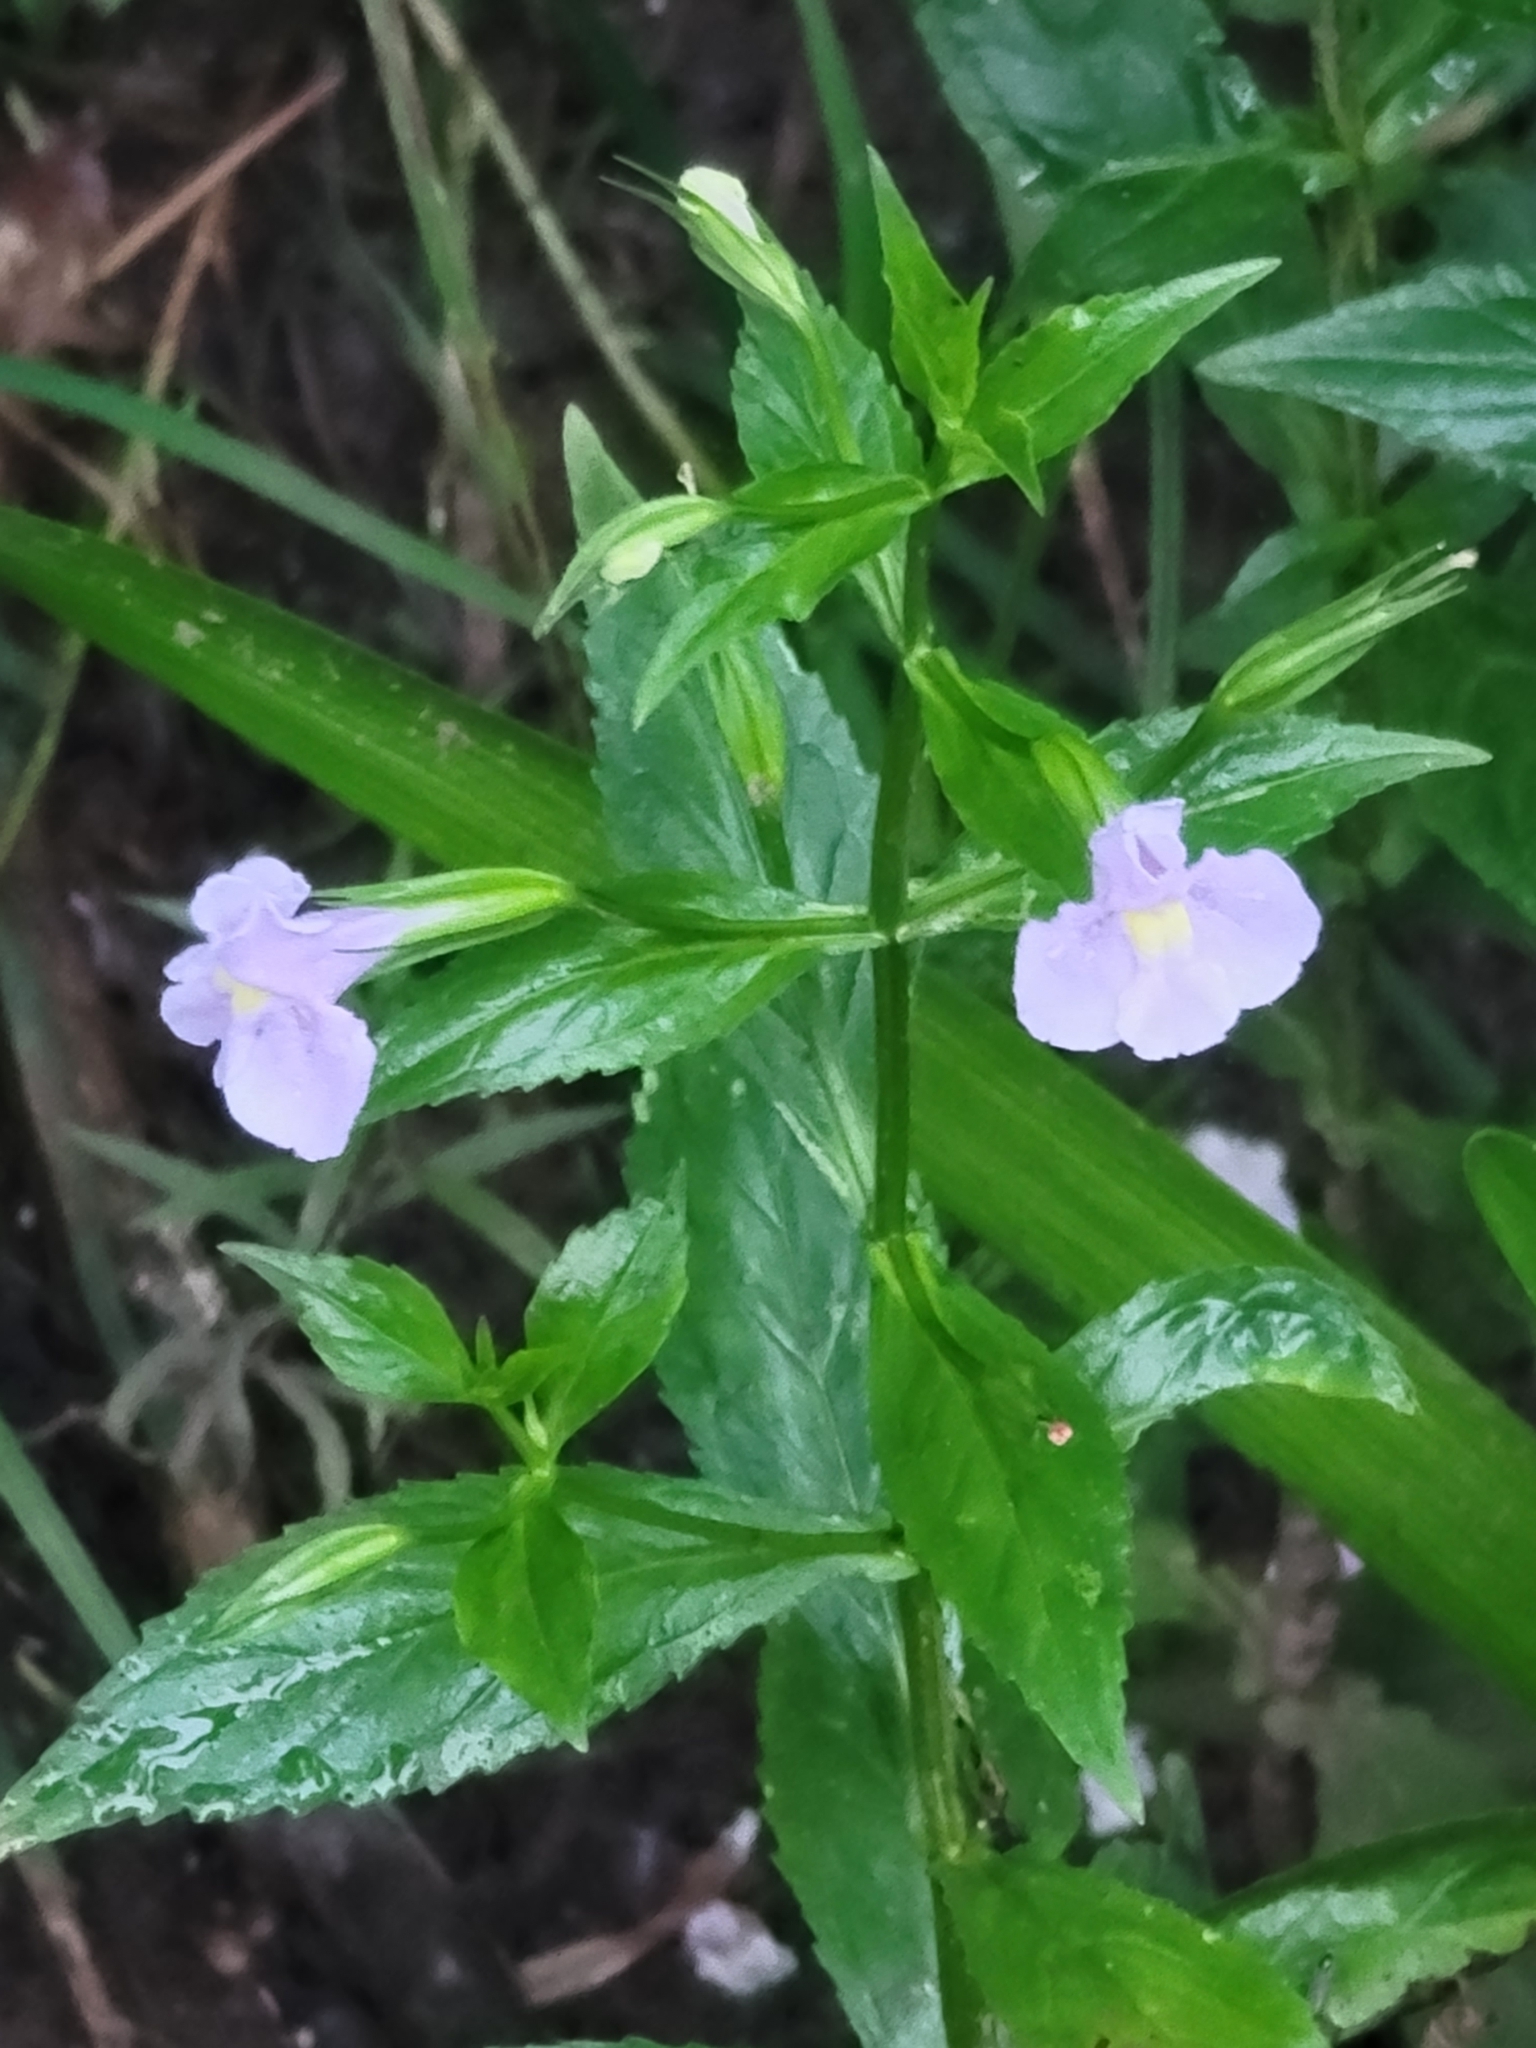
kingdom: Plantae
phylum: Tracheophyta
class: Magnoliopsida
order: Lamiales
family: Phrymaceae
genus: Mimulus
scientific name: Mimulus ringens
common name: Allegheny monkeyflower
